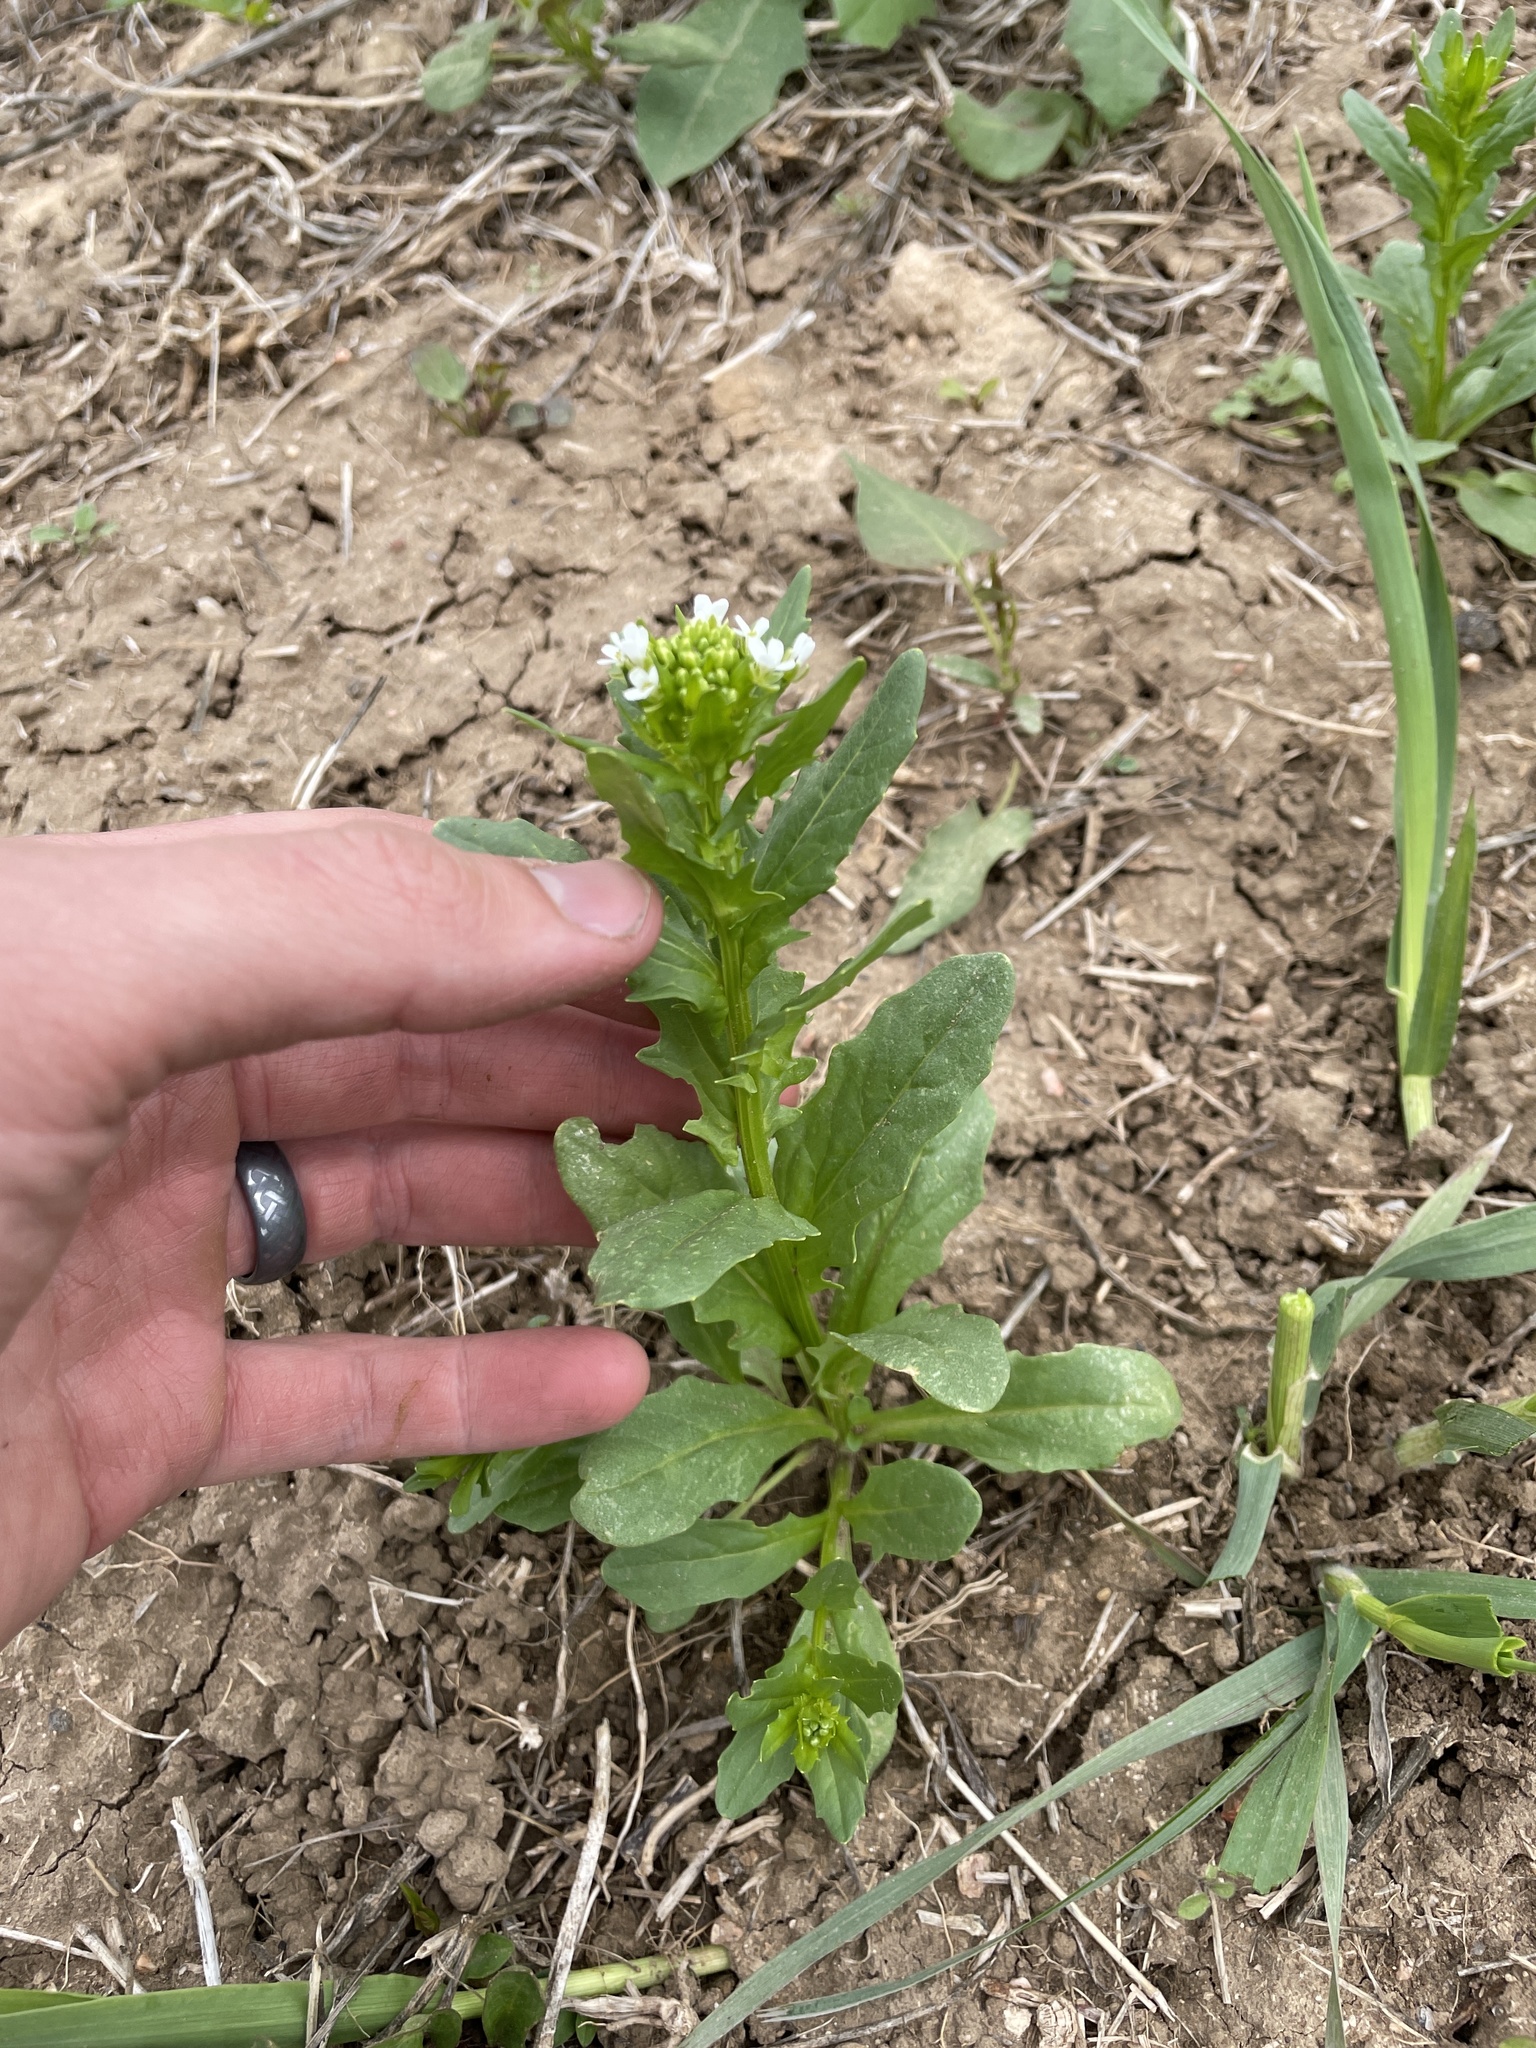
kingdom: Plantae
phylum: Tracheophyta
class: Magnoliopsida
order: Brassicales
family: Brassicaceae
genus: Thlaspi
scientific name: Thlaspi arvense
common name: Field pennycress
